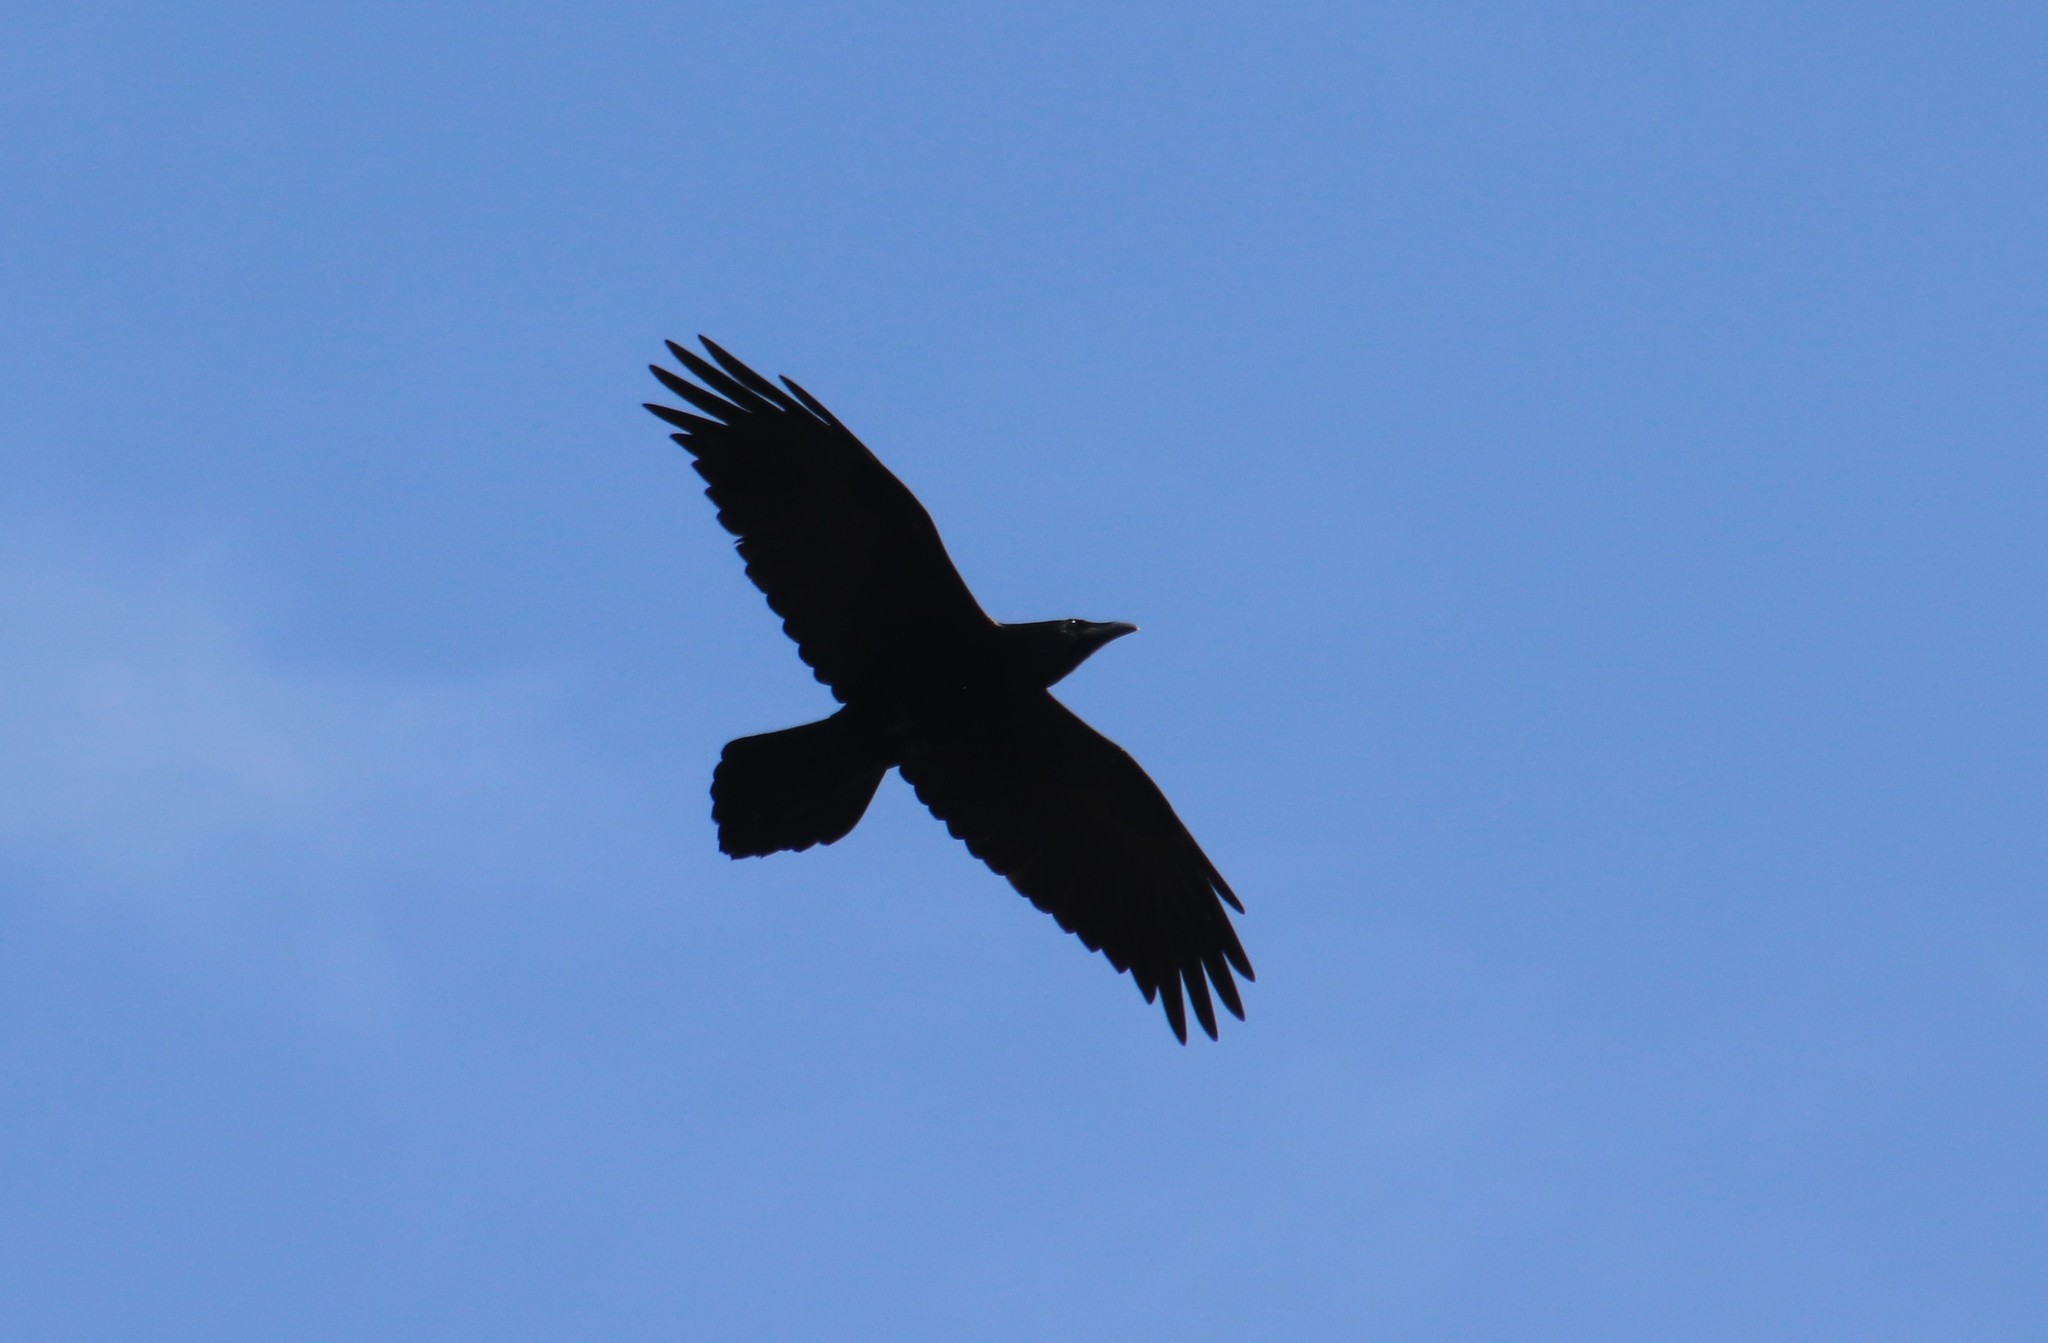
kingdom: Animalia
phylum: Chordata
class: Aves
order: Passeriformes
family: Corvidae
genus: Corvus
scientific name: Corvus corax
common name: Common raven
